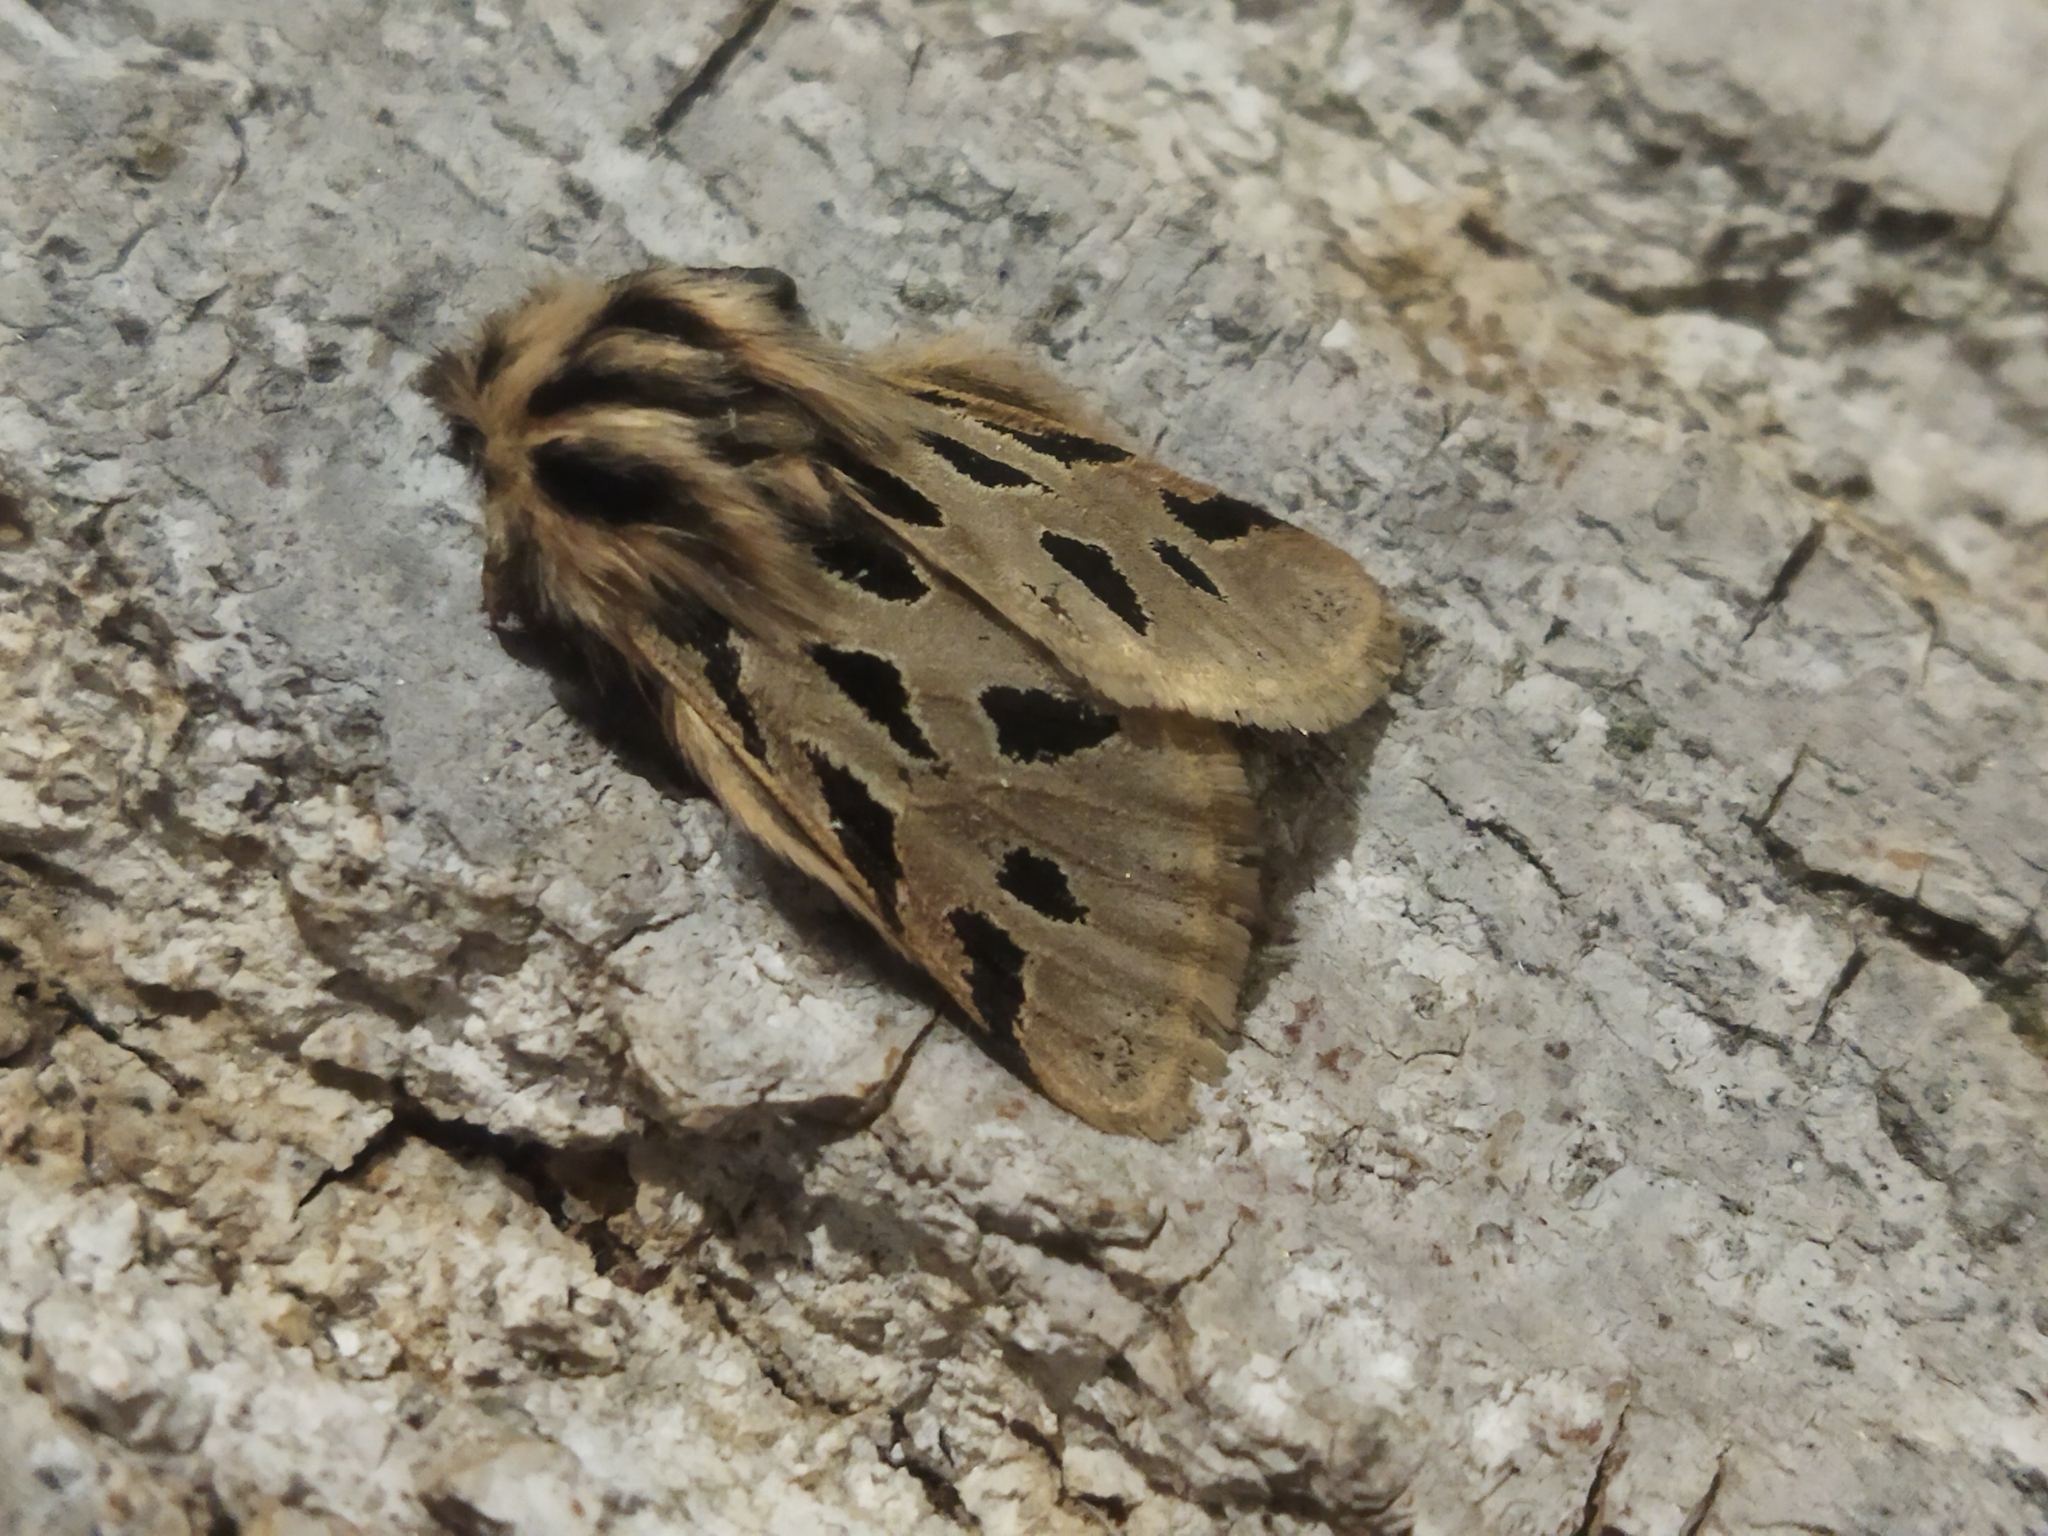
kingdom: Animalia
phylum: Arthropoda
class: Insecta
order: Lepidoptera
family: Erebidae
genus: Ocnogyna
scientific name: Ocnogyna parasita
